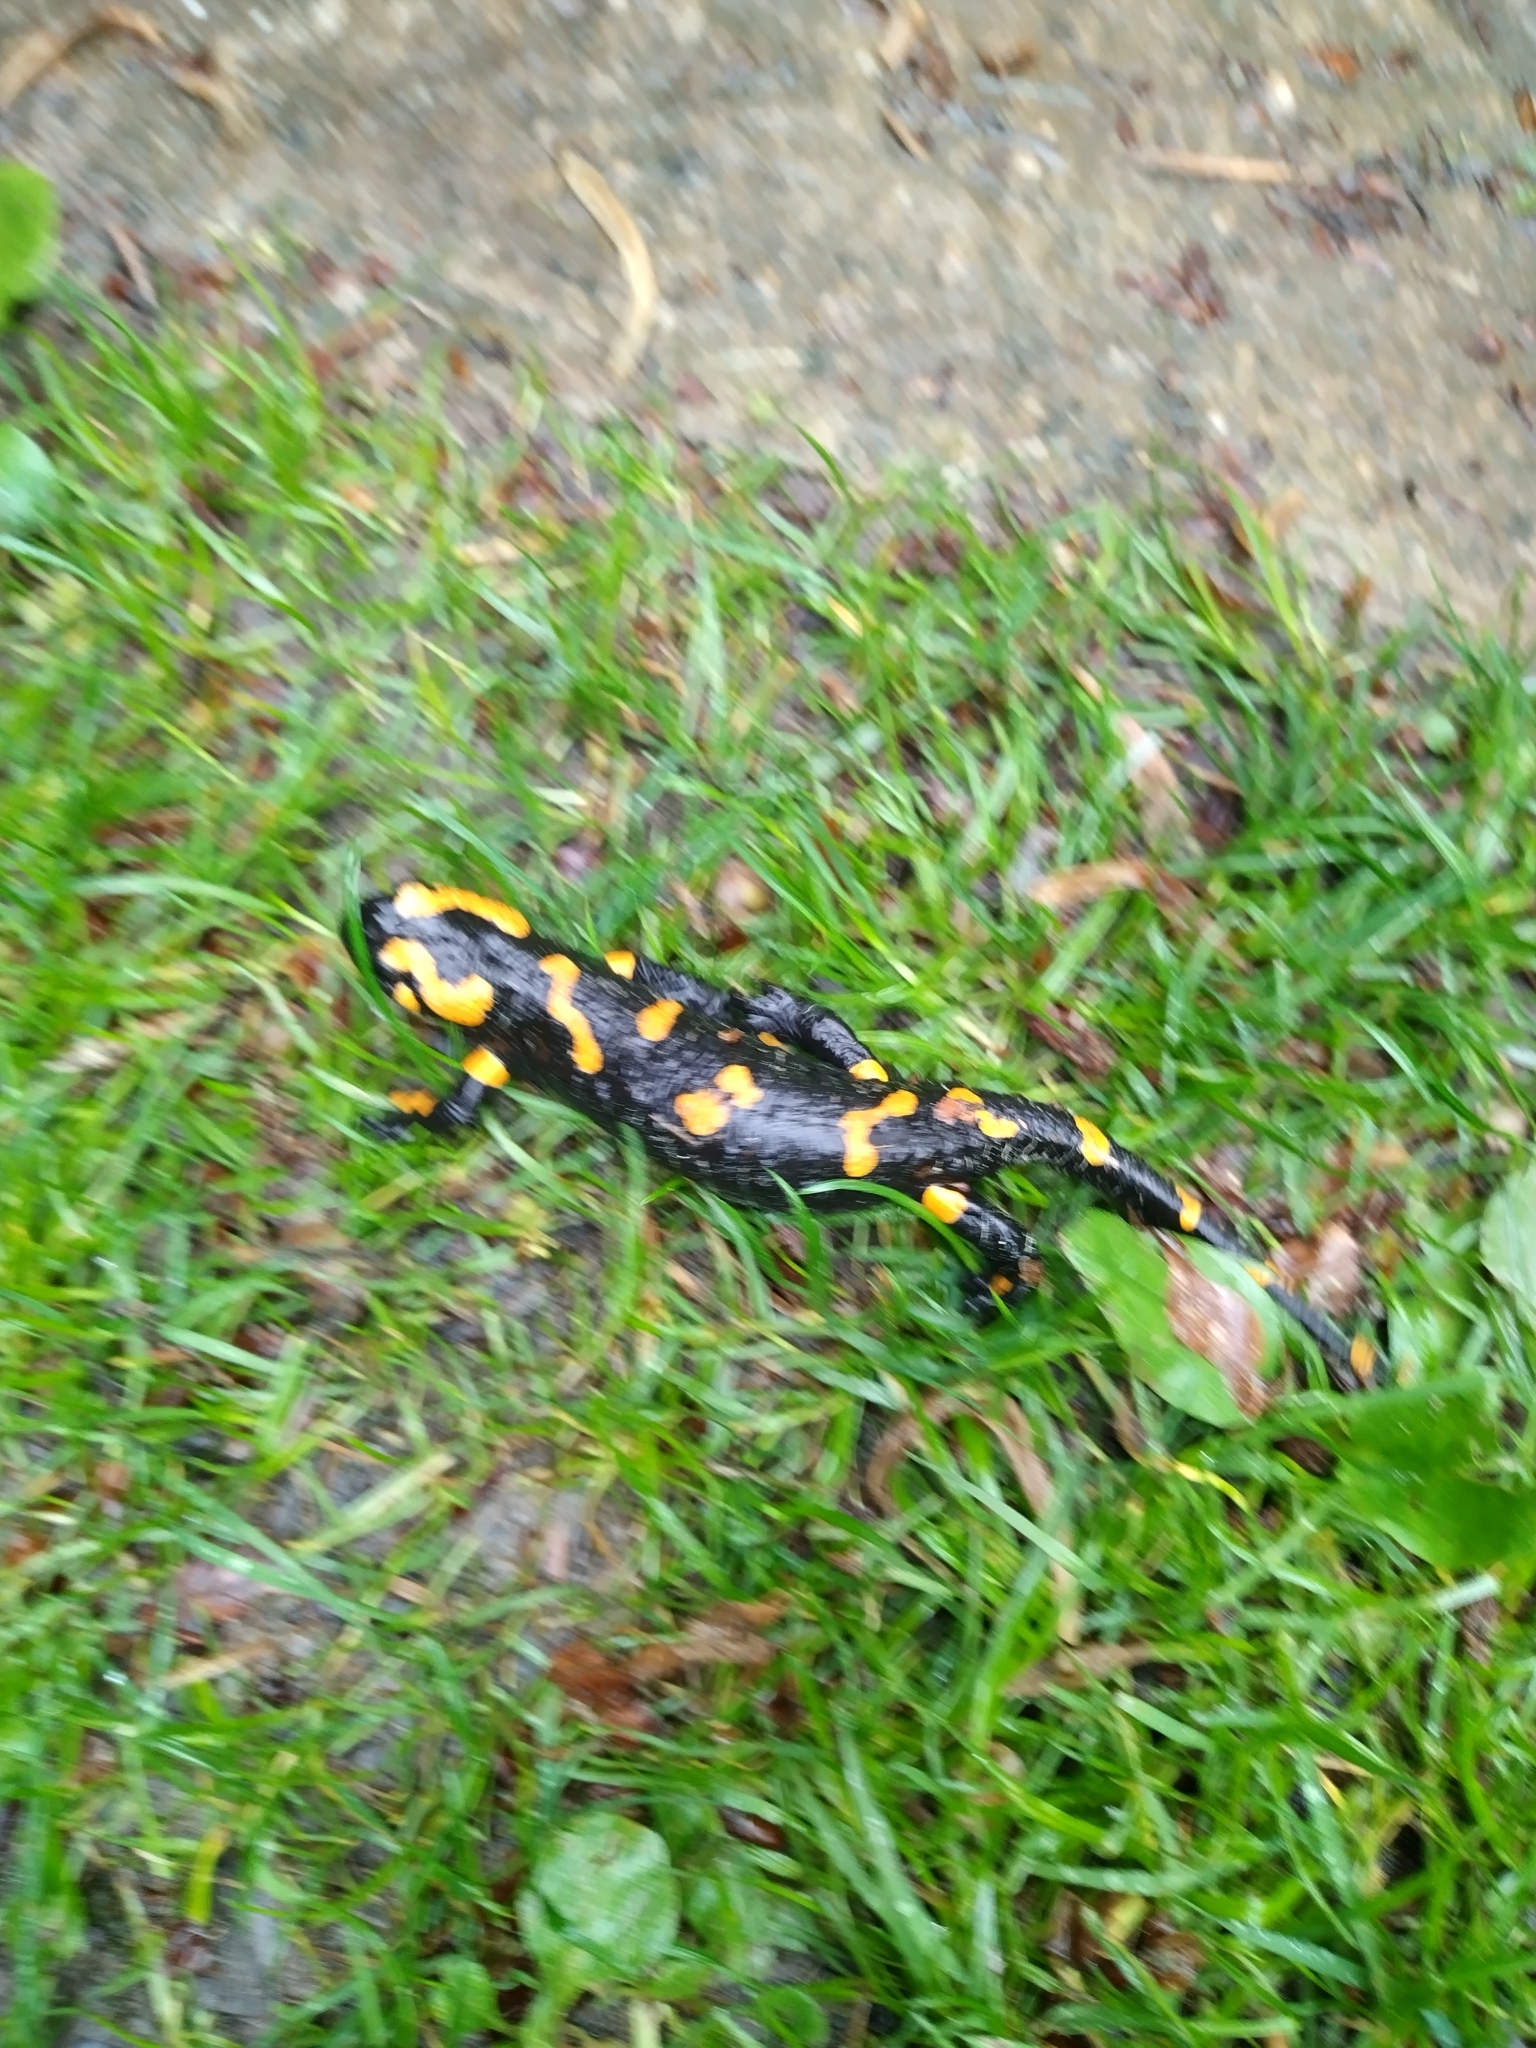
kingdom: Animalia
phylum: Chordata
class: Amphibia
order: Caudata
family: Salamandridae
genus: Salamandra
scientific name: Salamandra salamandra
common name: Fire salamander
